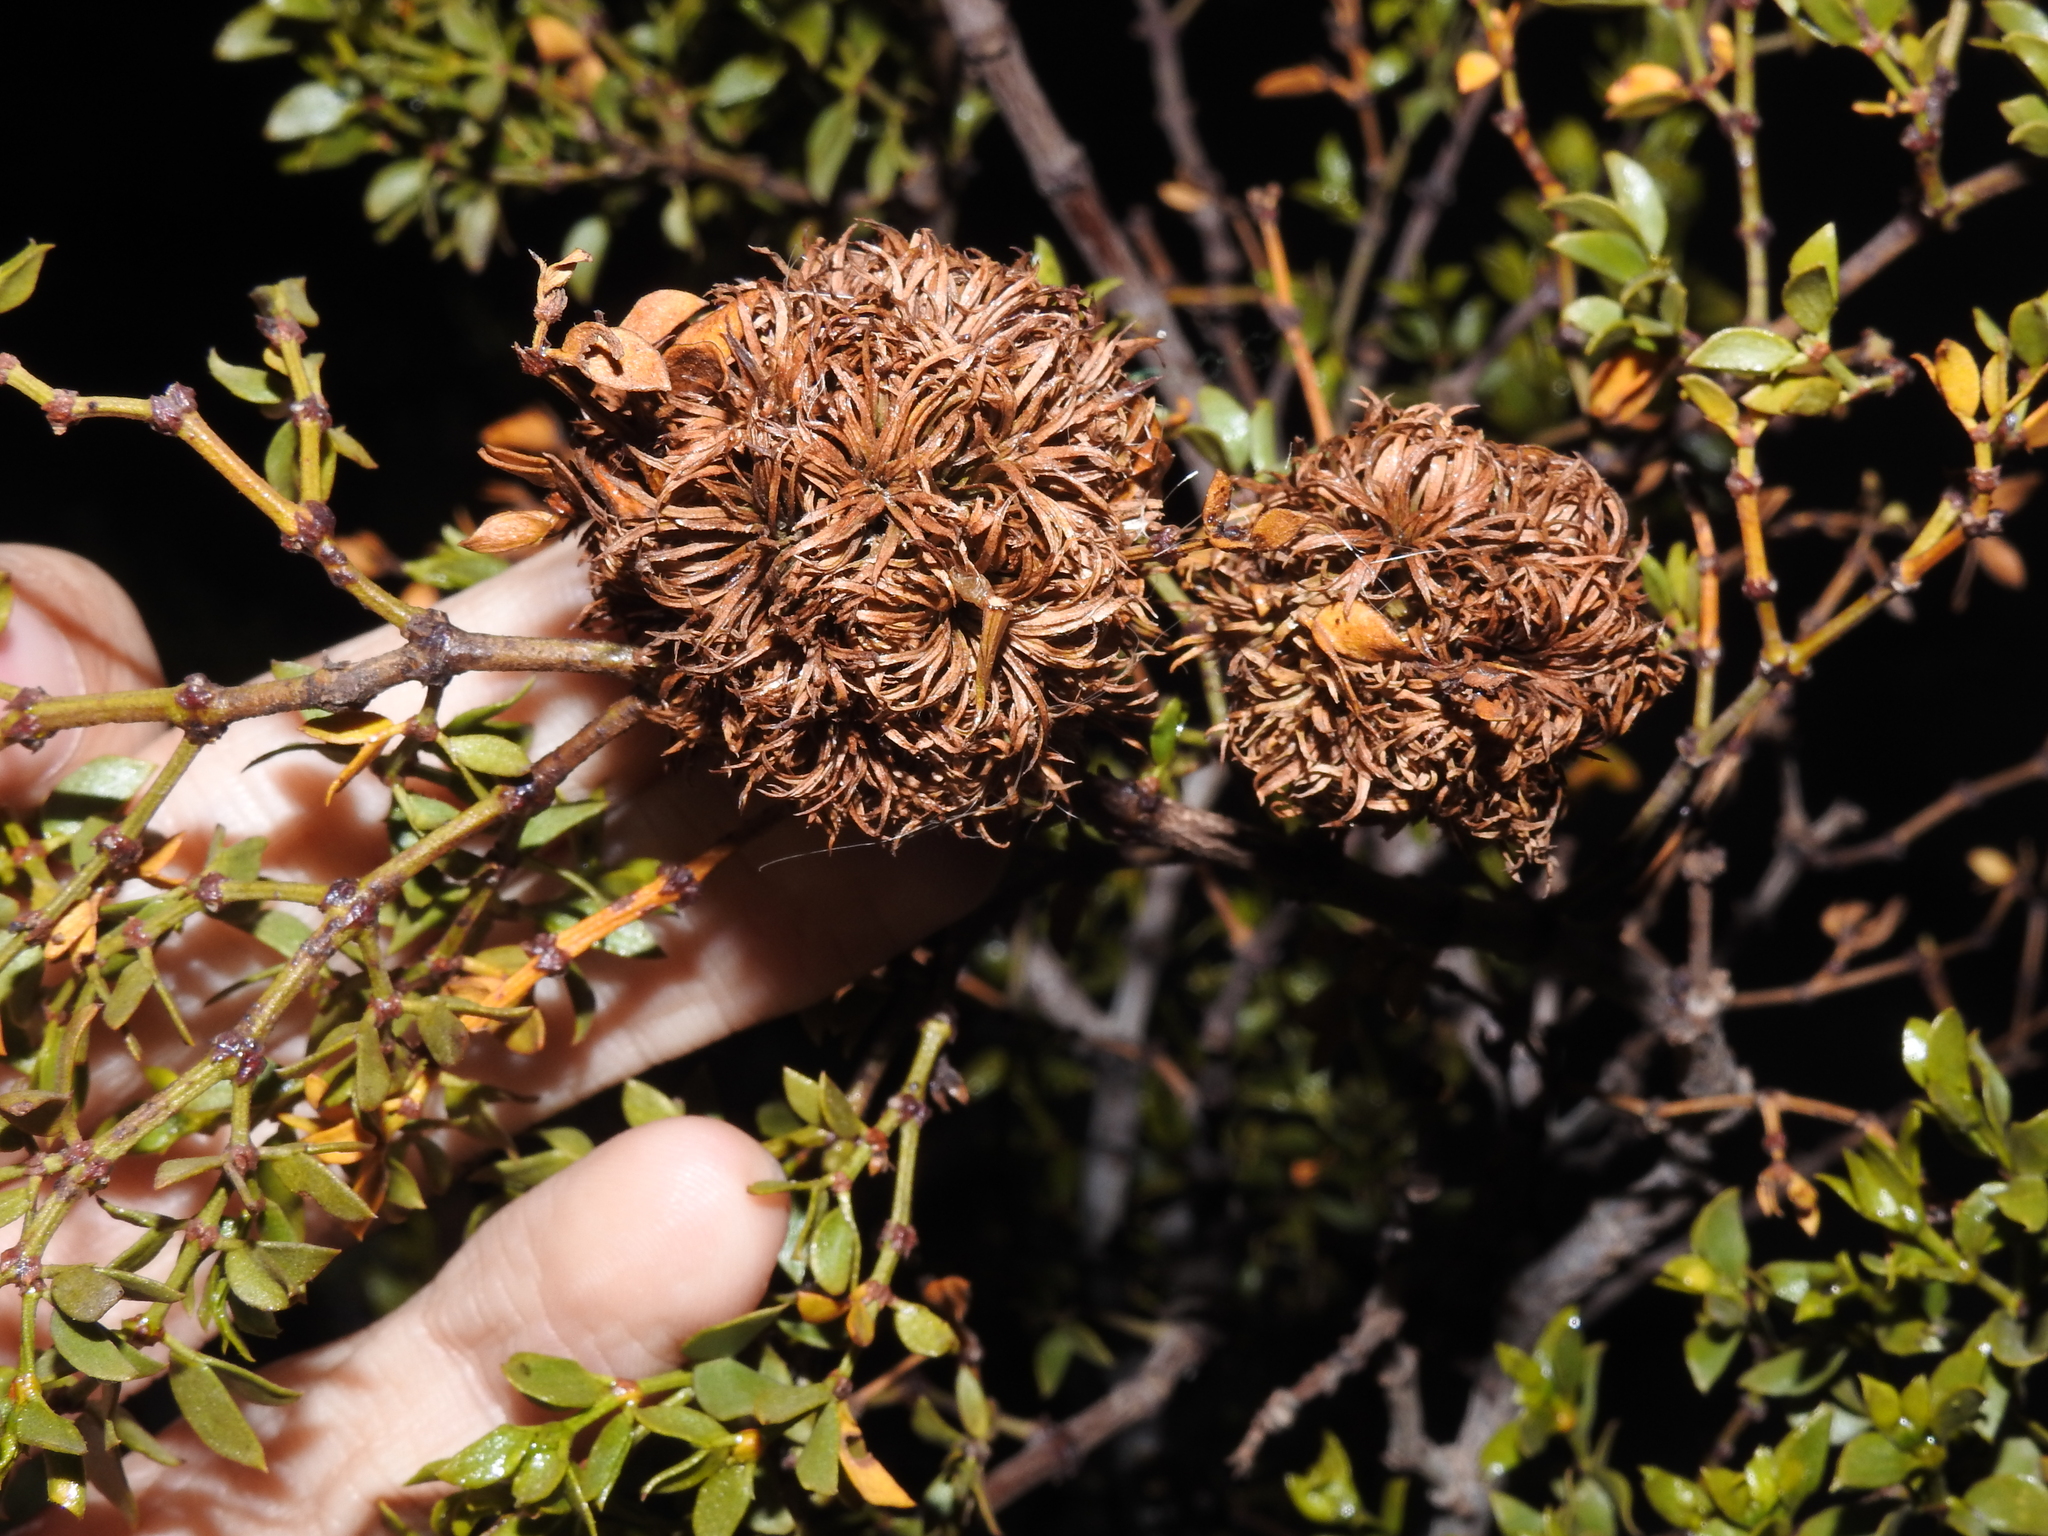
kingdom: Animalia
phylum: Arthropoda
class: Insecta
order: Diptera
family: Cecidomyiidae
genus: Asphondylia
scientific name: Asphondylia auripila
